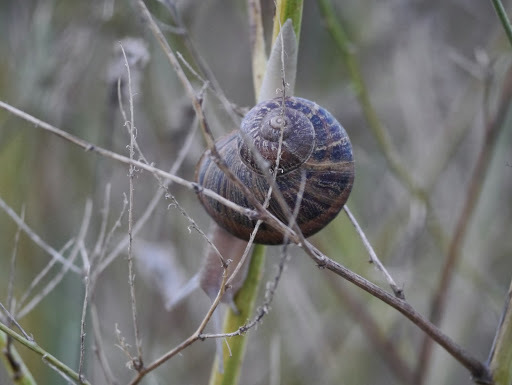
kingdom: Animalia
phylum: Mollusca
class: Gastropoda
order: Stylommatophora
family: Helicidae
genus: Cornu
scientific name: Cornu aspersum
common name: Brown garden snail
